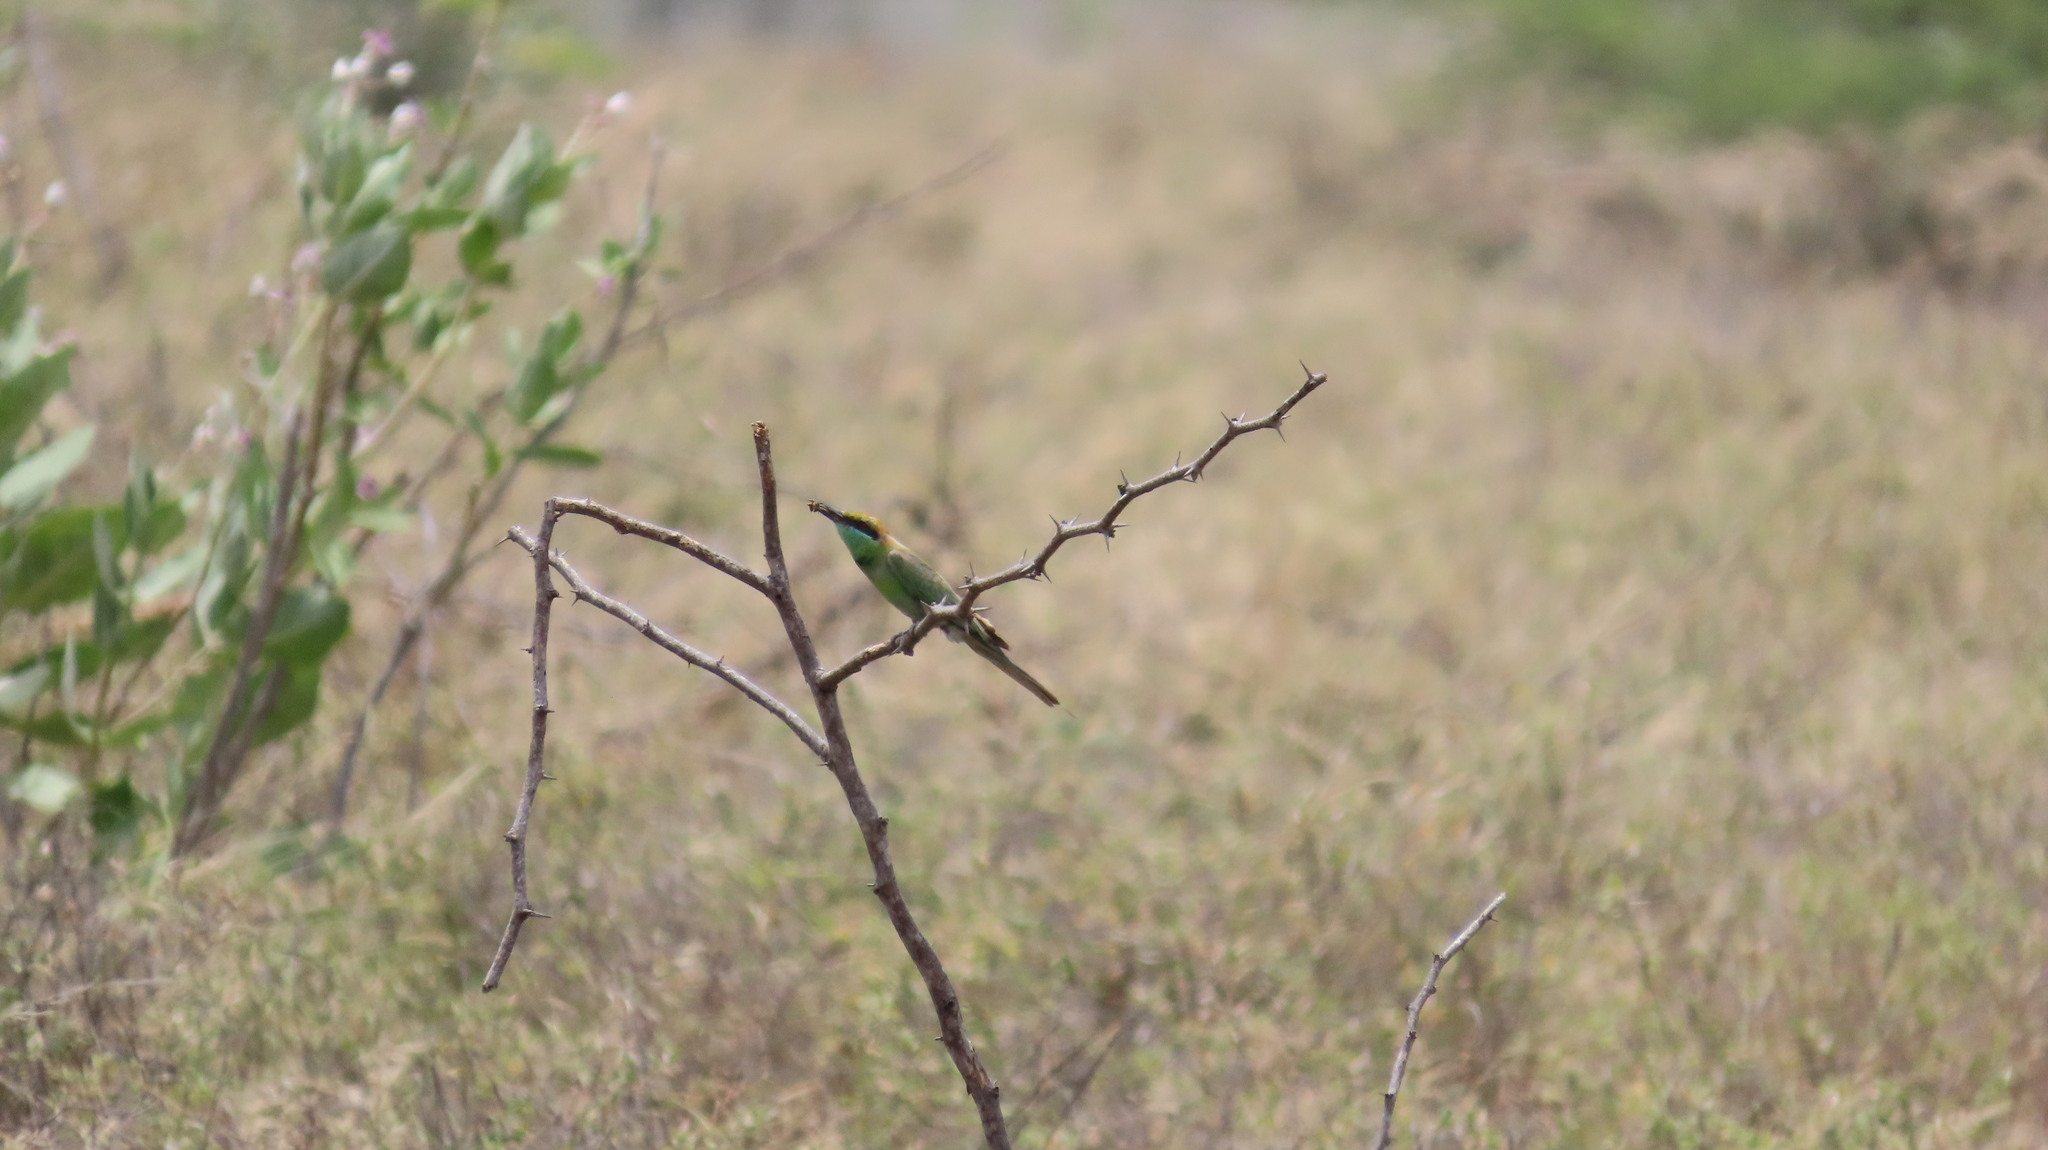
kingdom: Animalia
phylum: Chordata
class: Aves
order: Coraciiformes
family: Meropidae
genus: Merops
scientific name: Merops orientalis
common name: Green bee-eater
